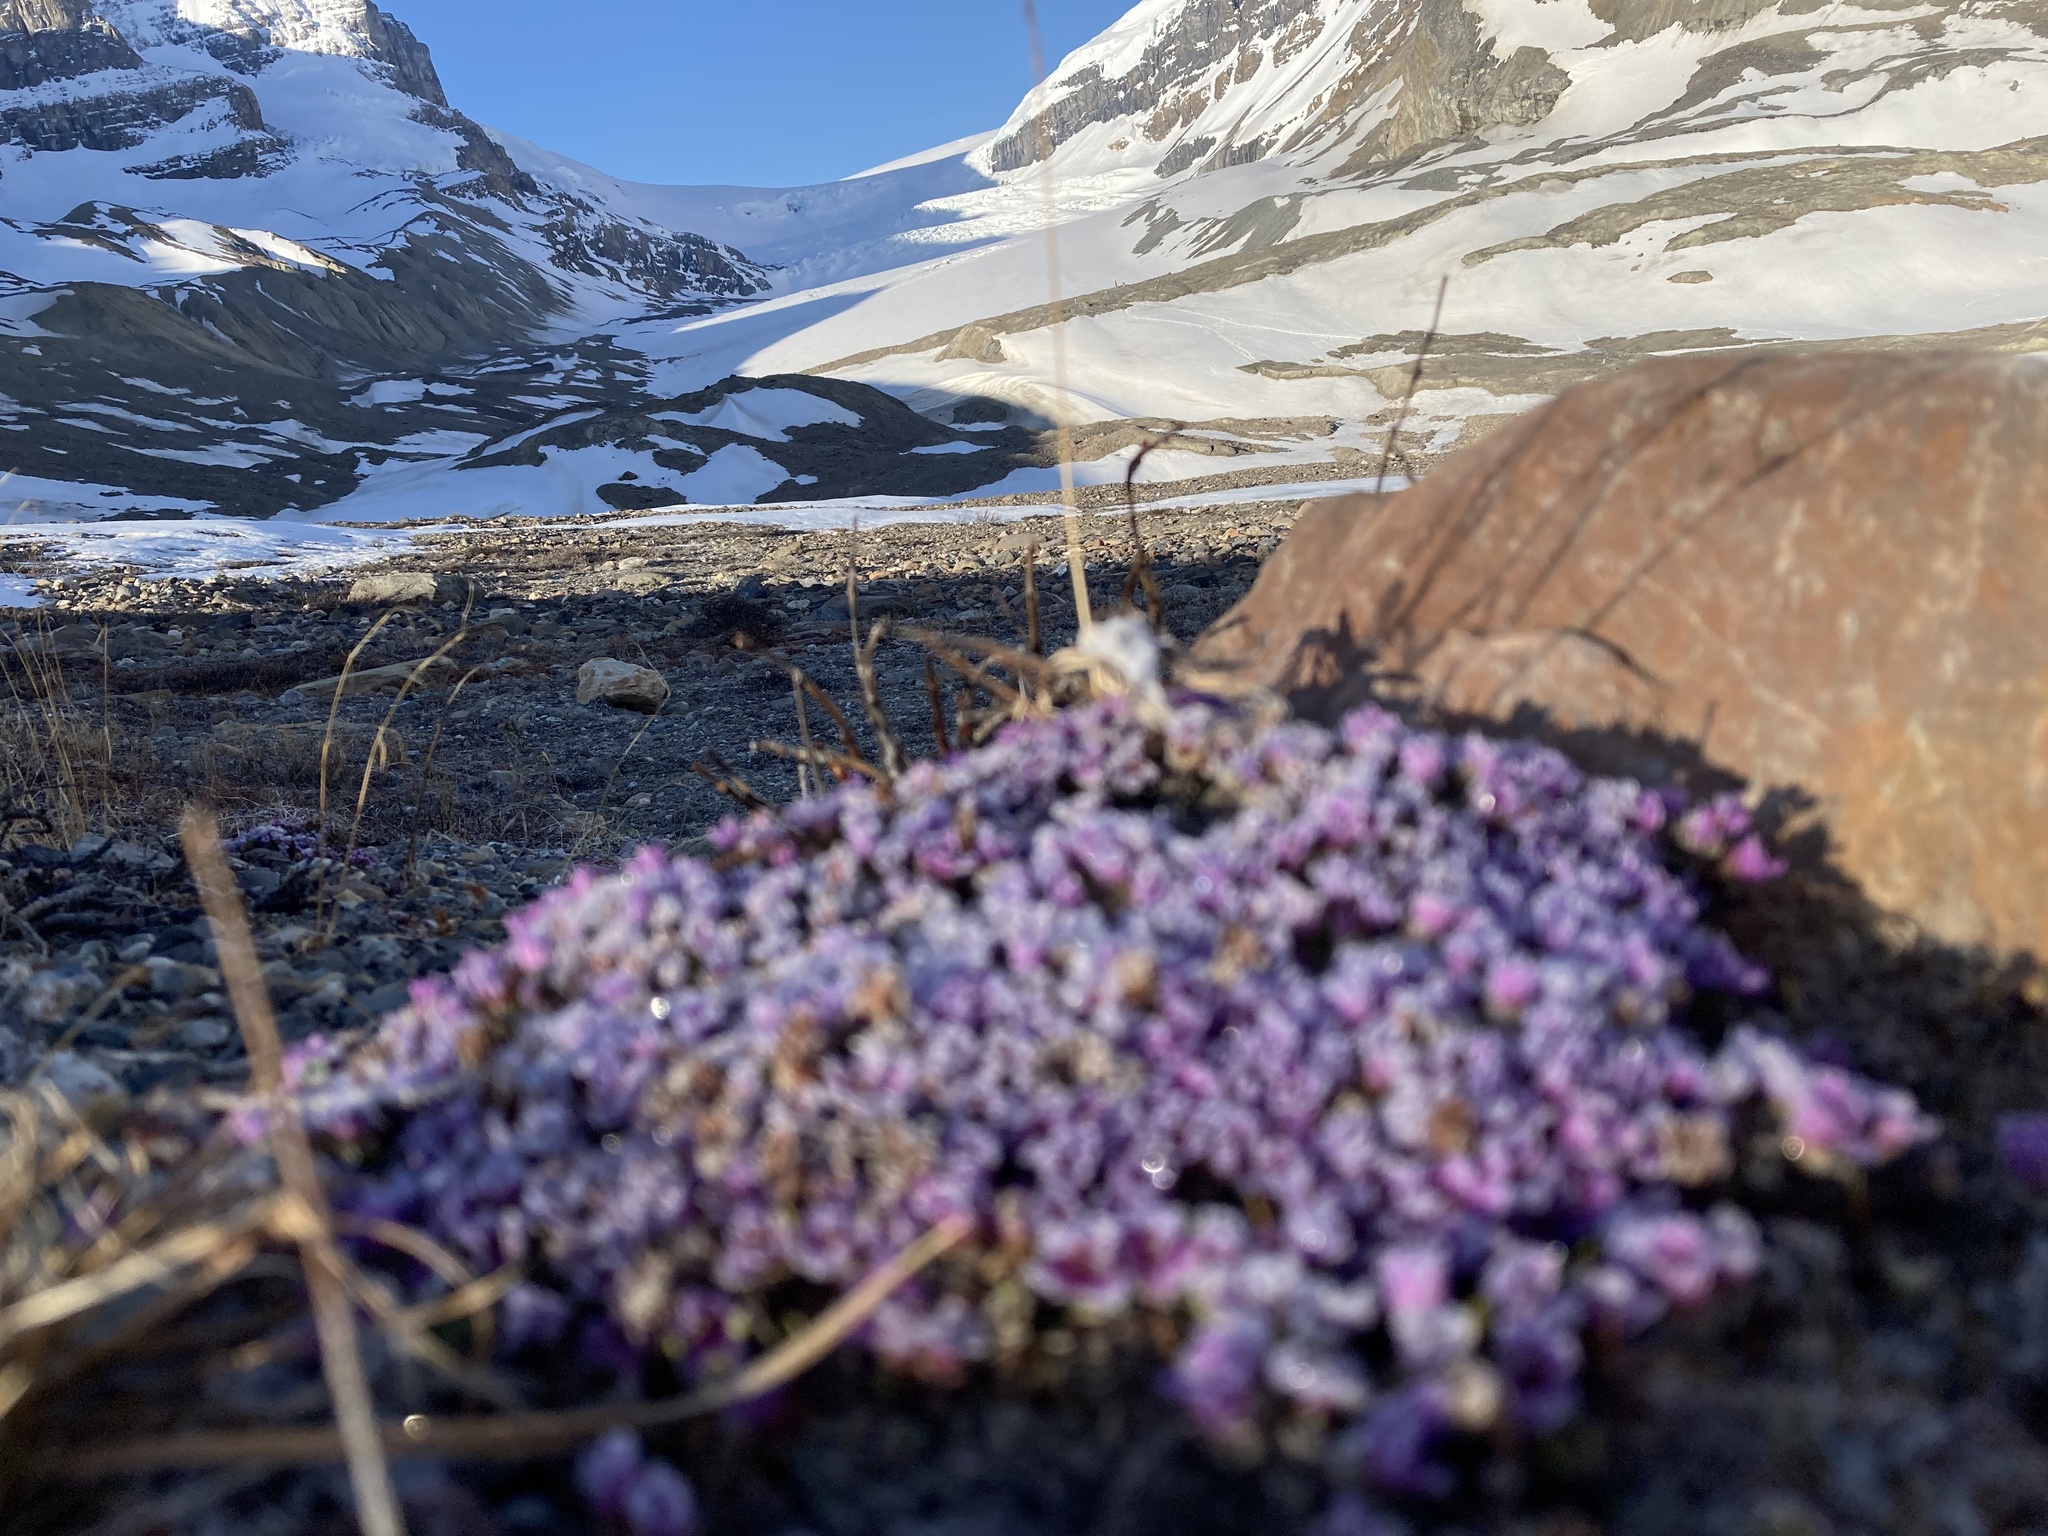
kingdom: Plantae
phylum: Tracheophyta
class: Magnoliopsida
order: Saxifragales
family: Saxifragaceae
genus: Saxifraga
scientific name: Saxifraga oppositifolia
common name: Purple saxifrage
